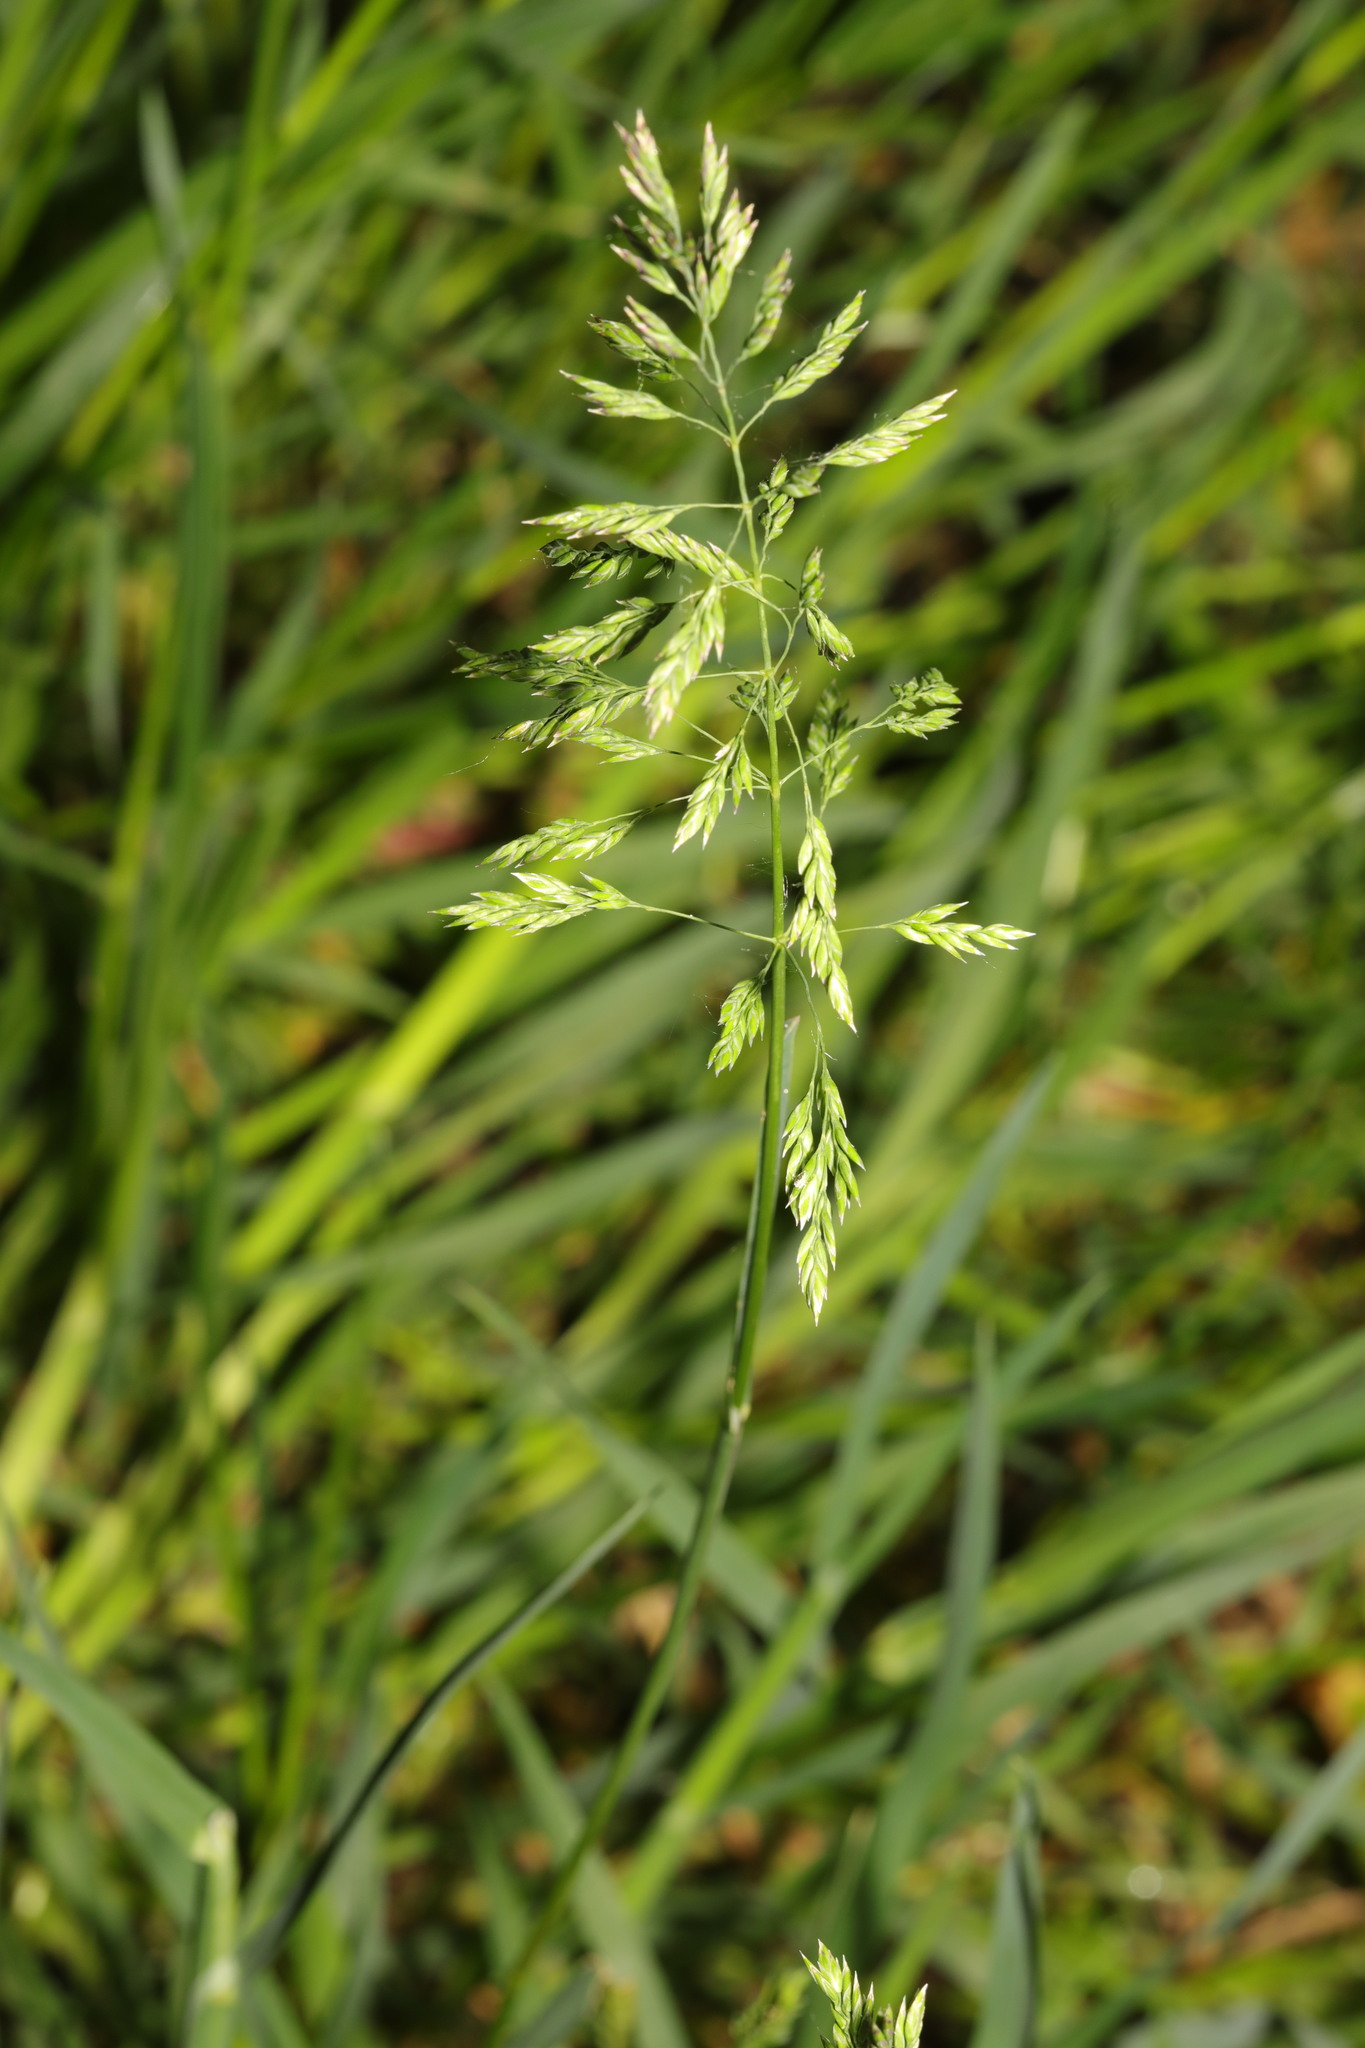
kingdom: Plantae
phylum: Tracheophyta
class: Liliopsida
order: Poales
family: Poaceae
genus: Poa
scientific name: Poa pratensis
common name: Kentucky bluegrass
